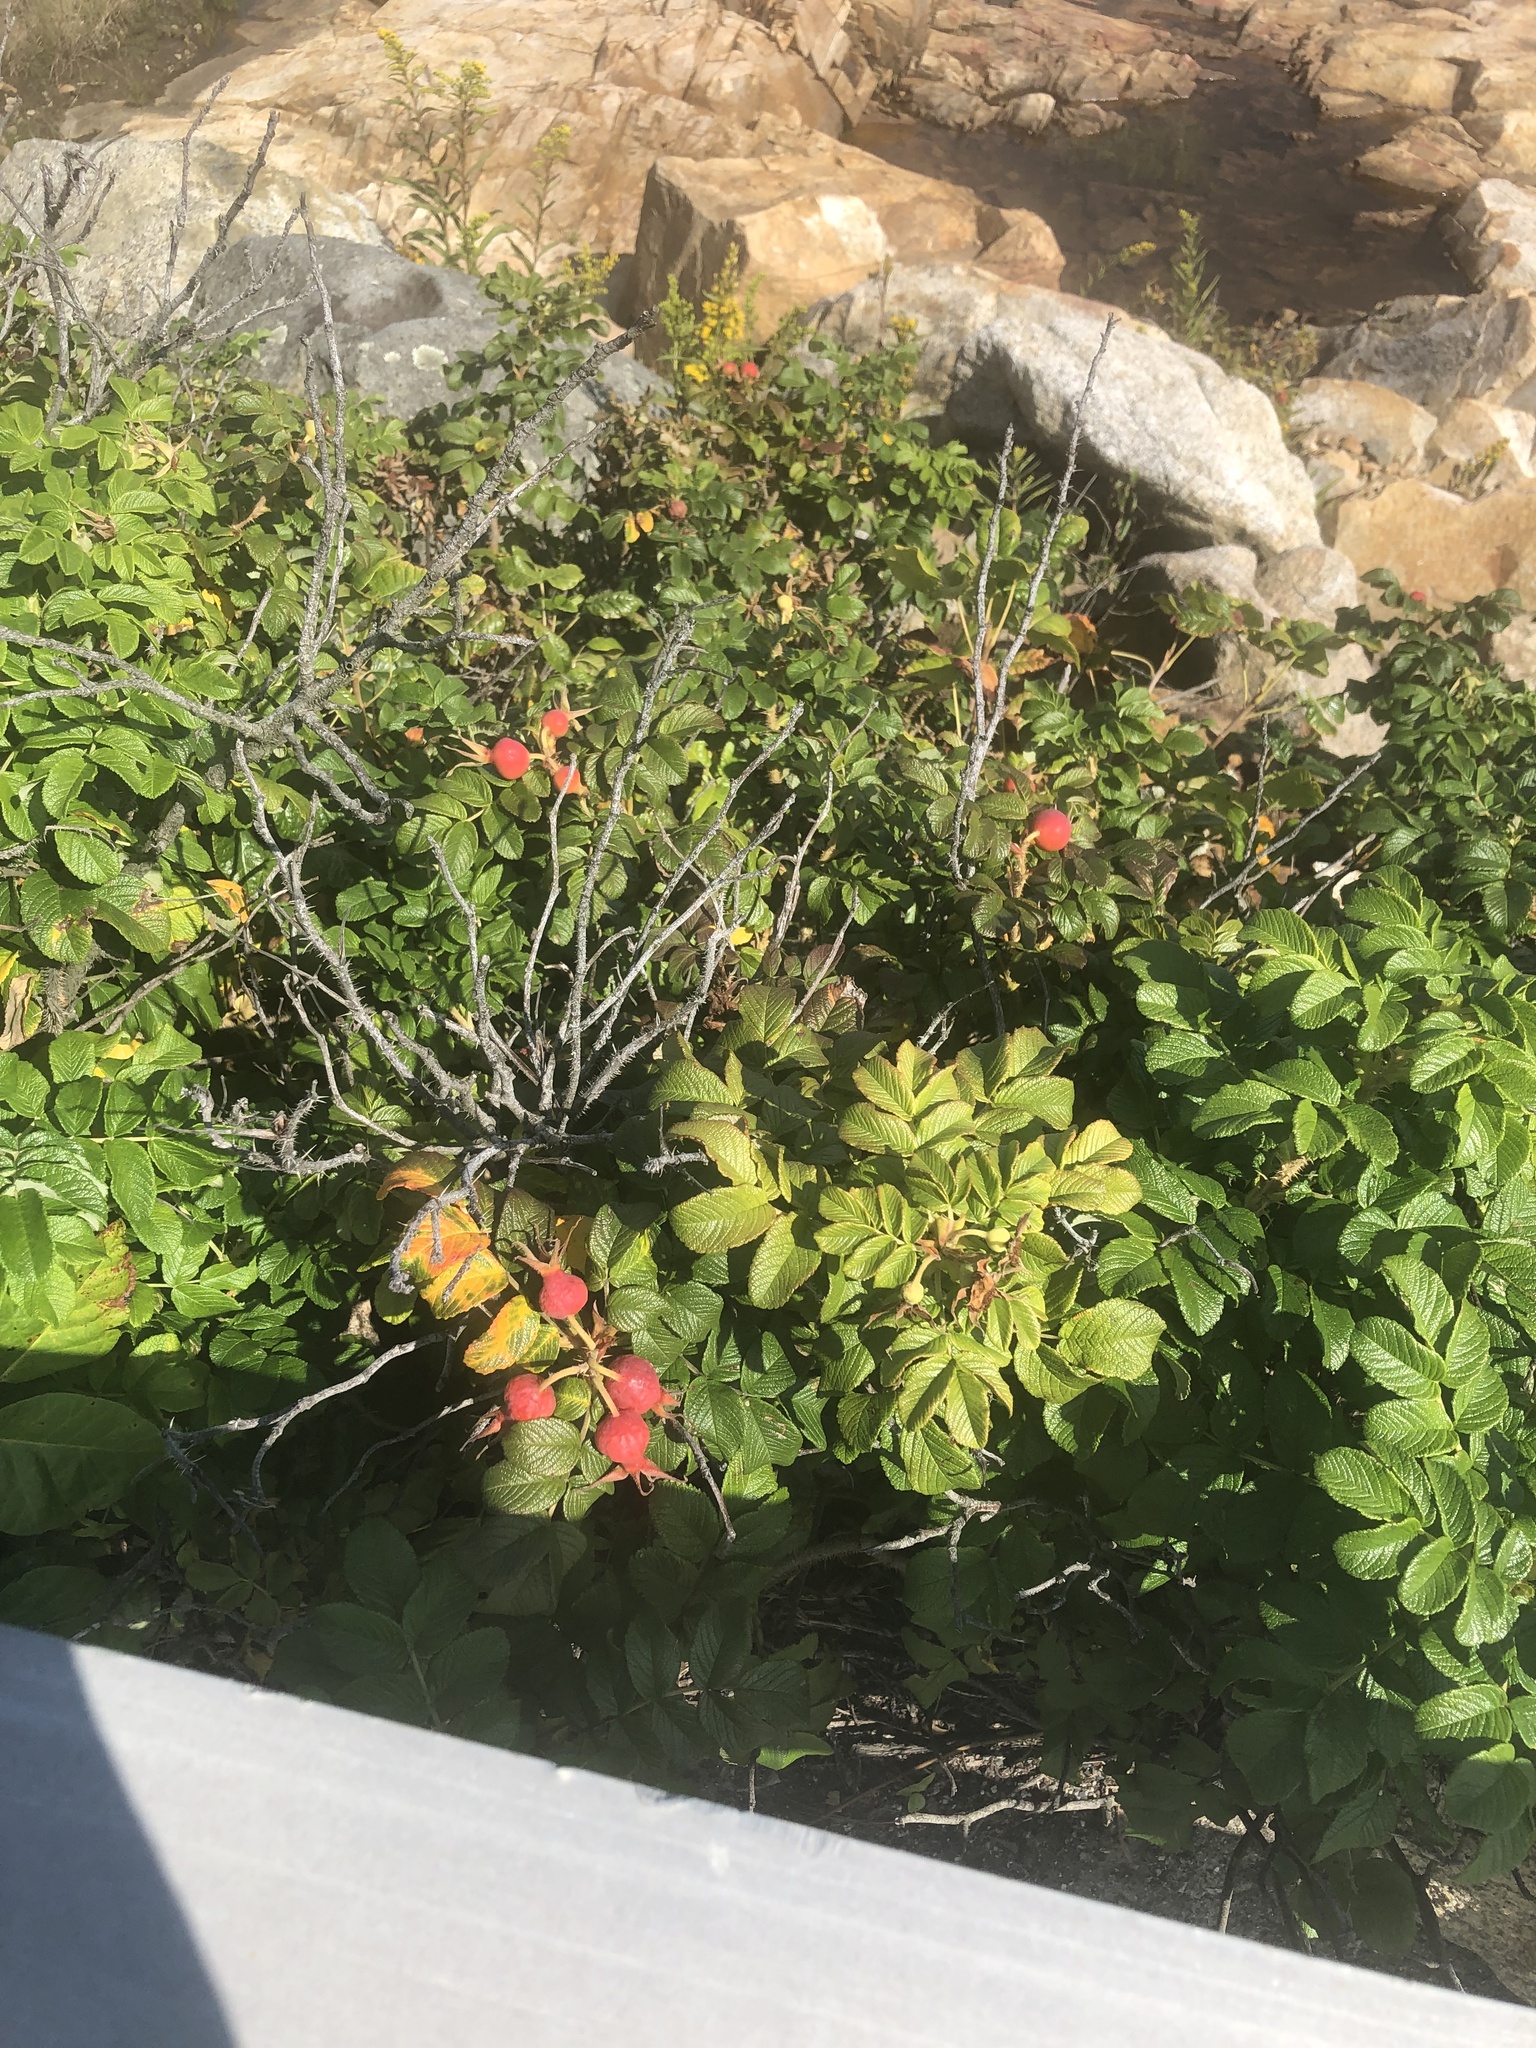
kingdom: Plantae
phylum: Tracheophyta
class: Magnoliopsida
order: Rosales
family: Rosaceae
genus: Rosa
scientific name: Rosa rugosa
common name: Japanese rose
